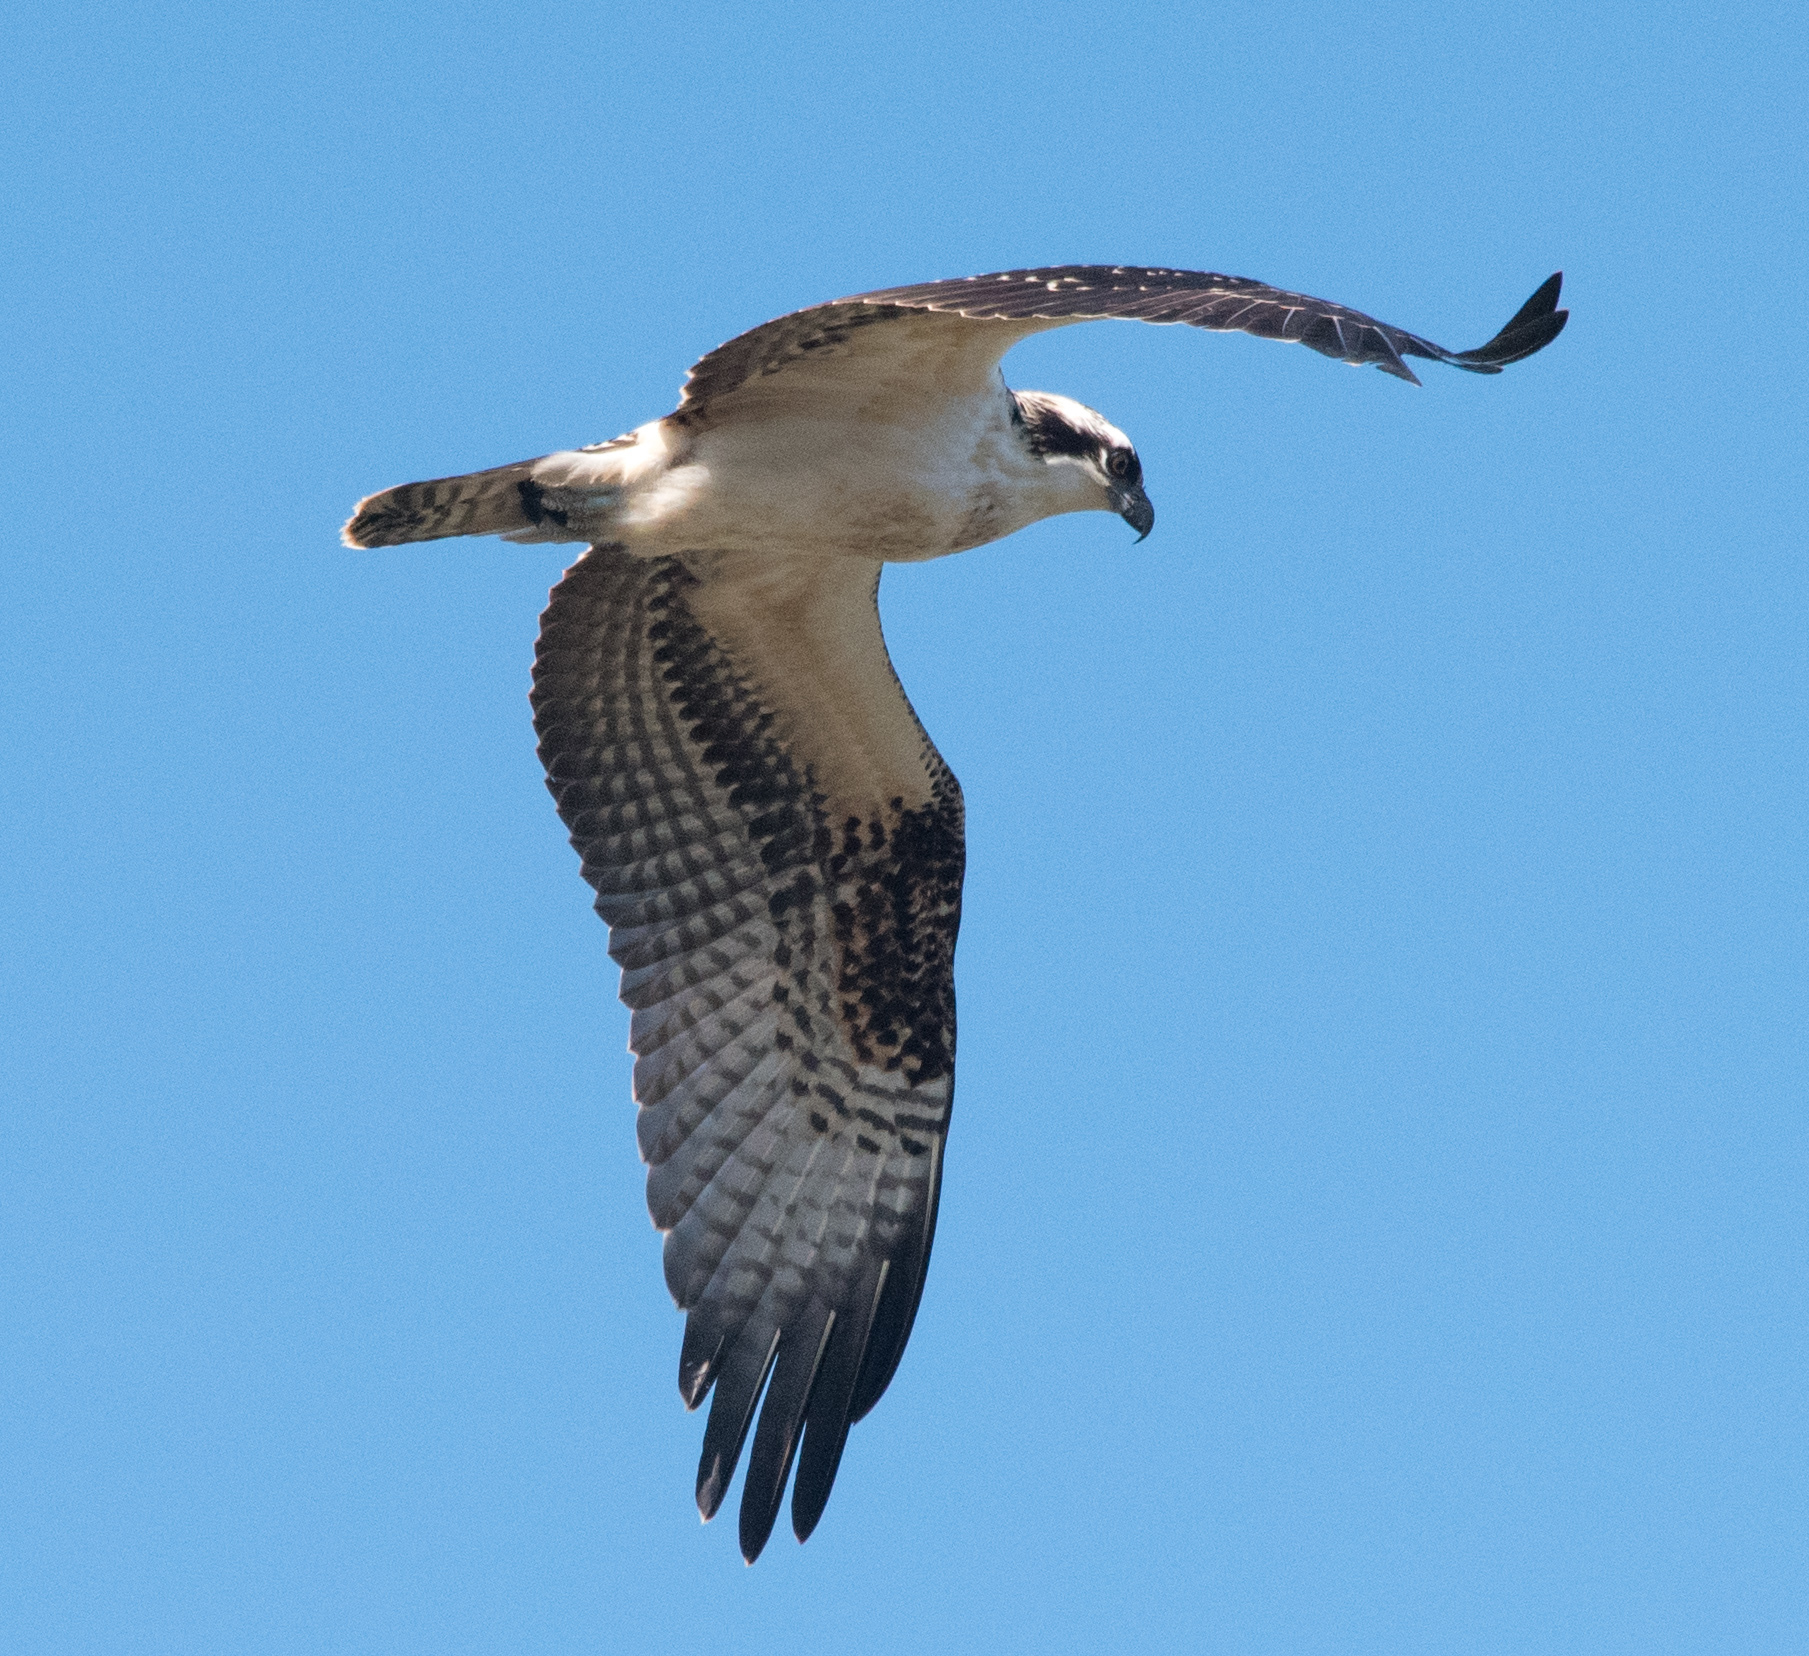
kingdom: Animalia
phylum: Chordata
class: Aves
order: Accipitriformes
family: Pandionidae
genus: Pandion
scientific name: Pandion haliaetus
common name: Osprey
